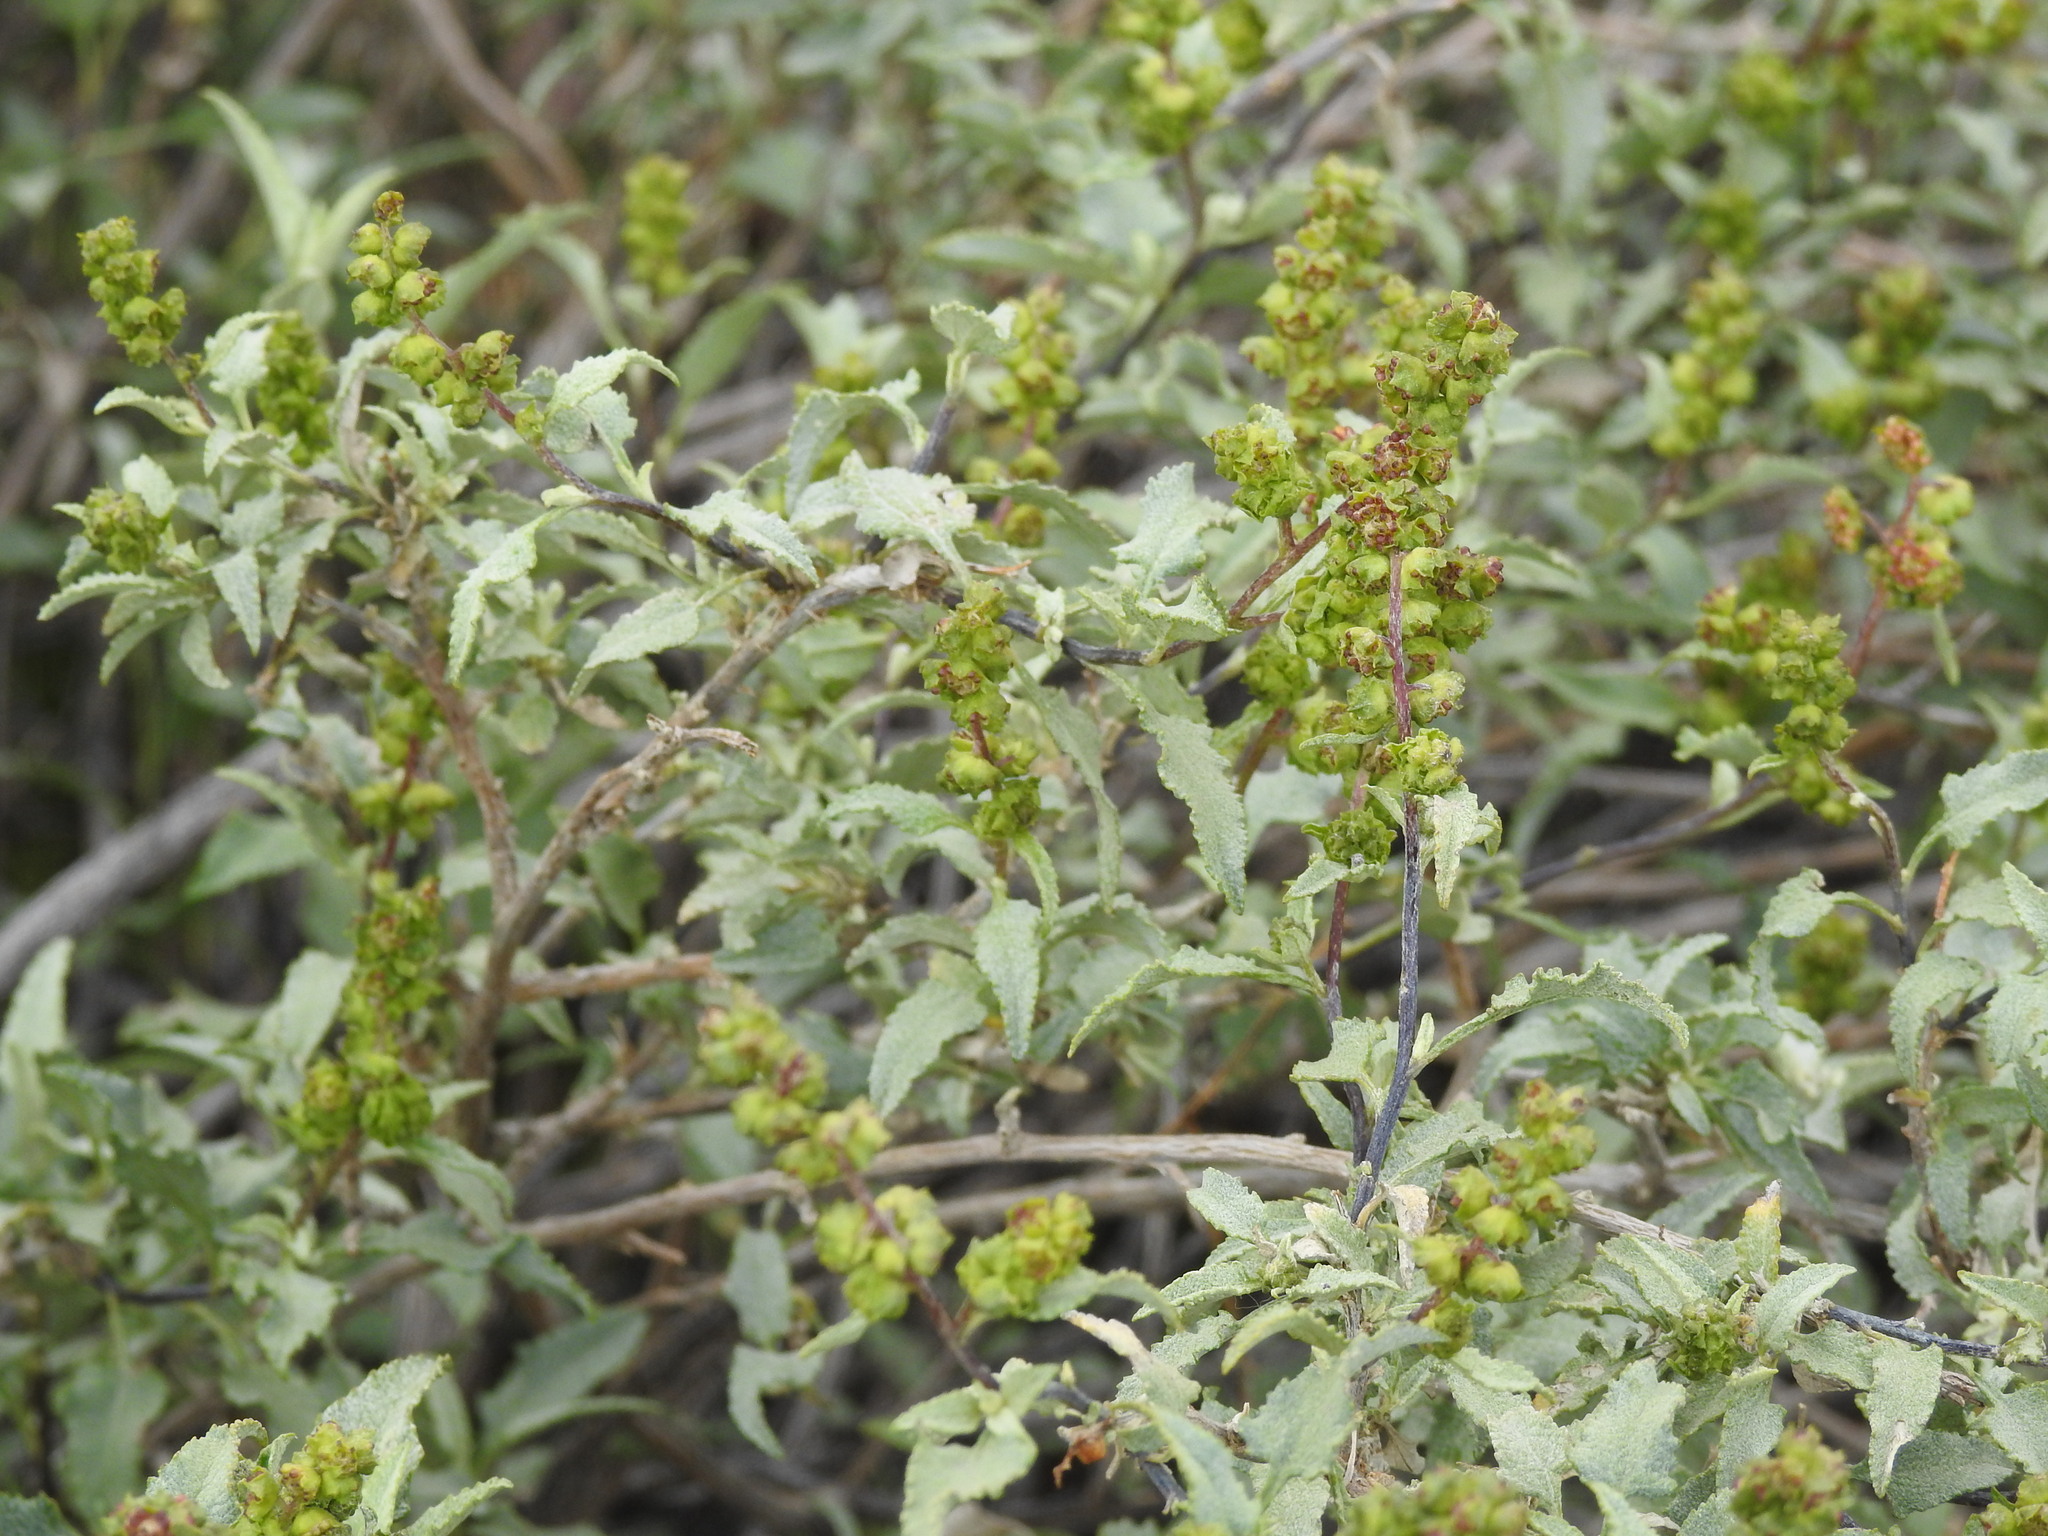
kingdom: Plantae
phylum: Tracheophyta
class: Magnoliopsida
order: Asterales
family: Asteraceae
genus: Ambrosia
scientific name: Ambrosia deltoidea
